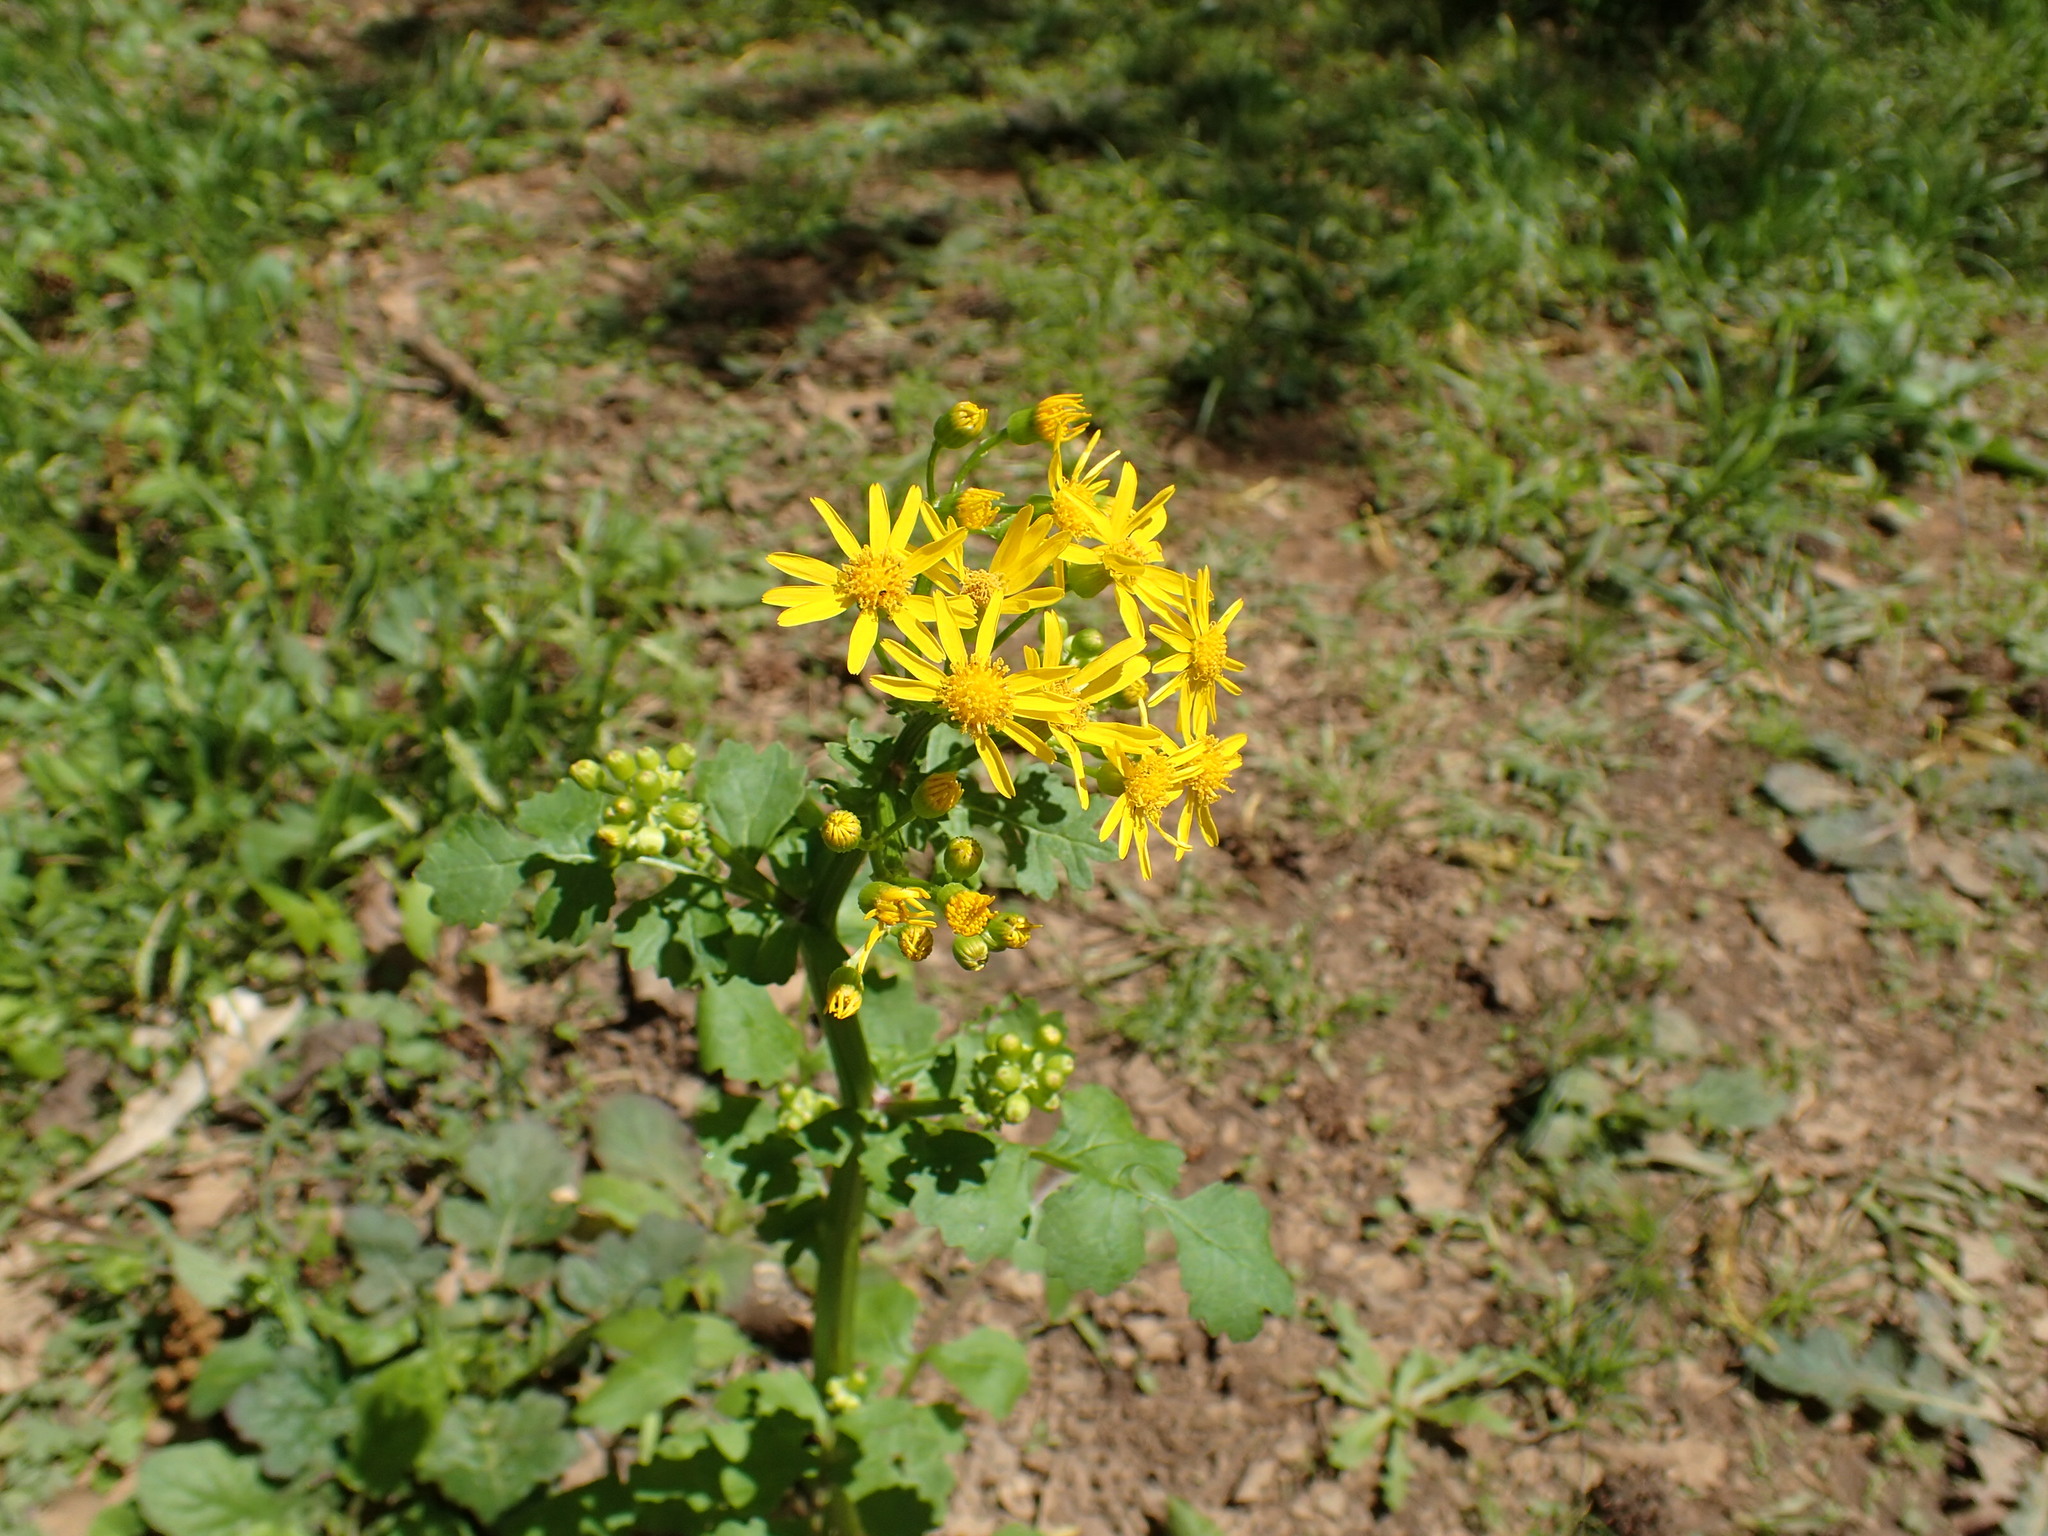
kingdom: Plantae
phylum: Tracheophyta
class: Magnoliopsida
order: Asterales
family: Asteraceae
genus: Packera
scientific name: Packera glabella
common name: Butterweed
